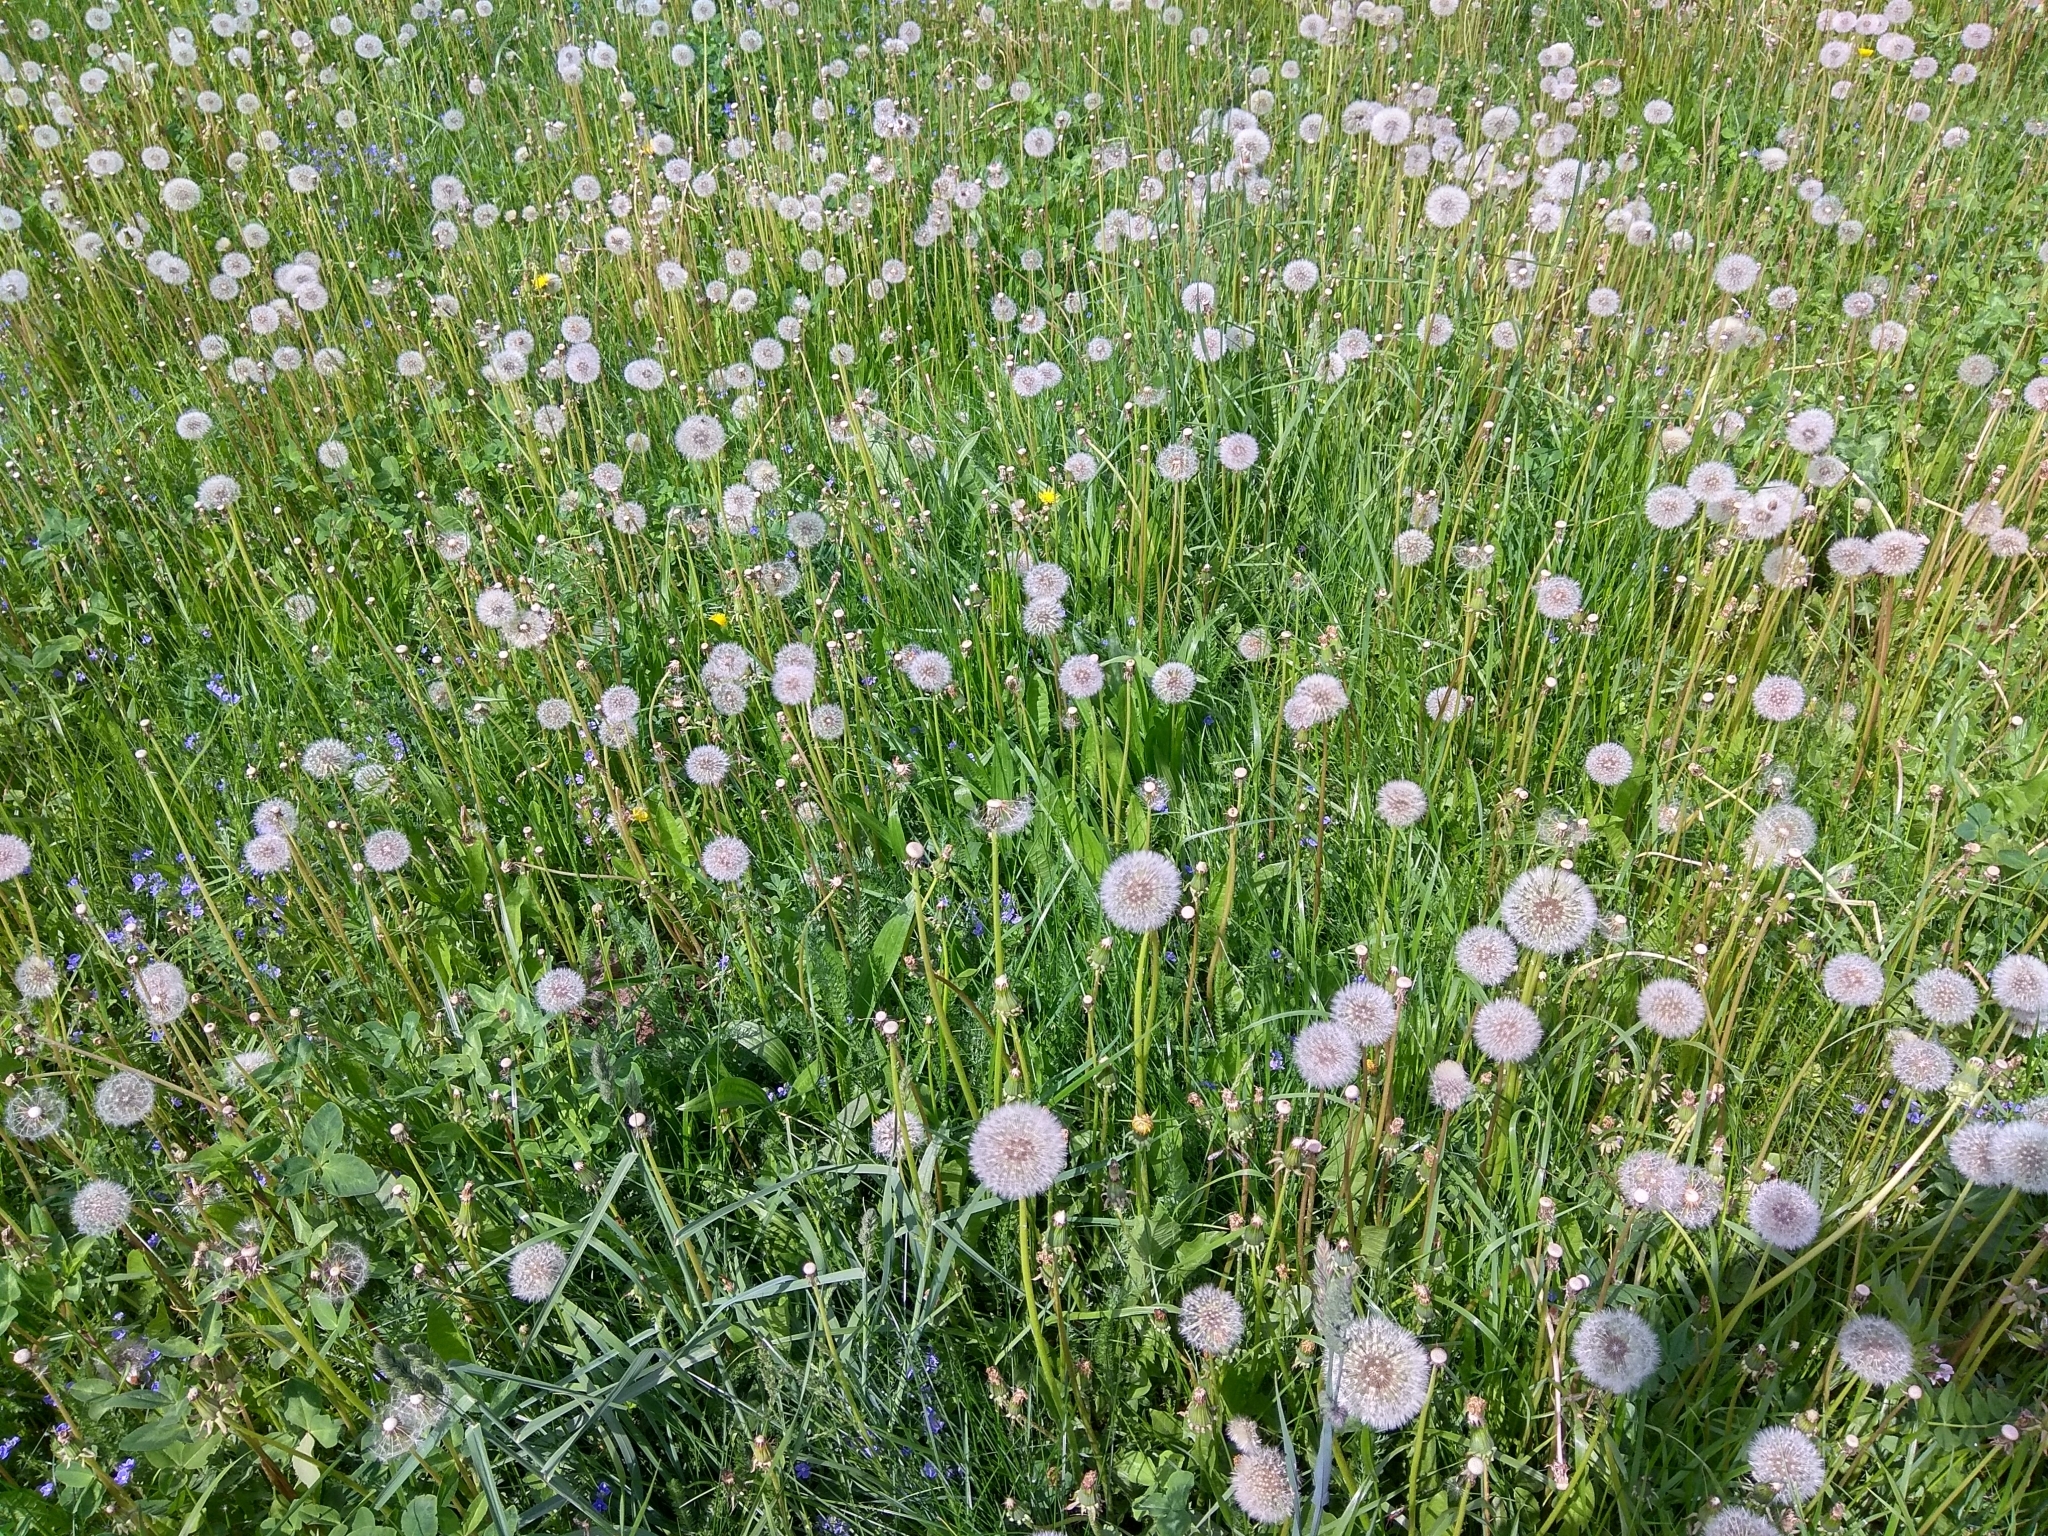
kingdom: Plantae
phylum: Tracheophyta
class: Magnoliopsida
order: Asterales
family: Asteraceae
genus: Taraxacum
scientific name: Taraxacum officinale
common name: Common dandelion
